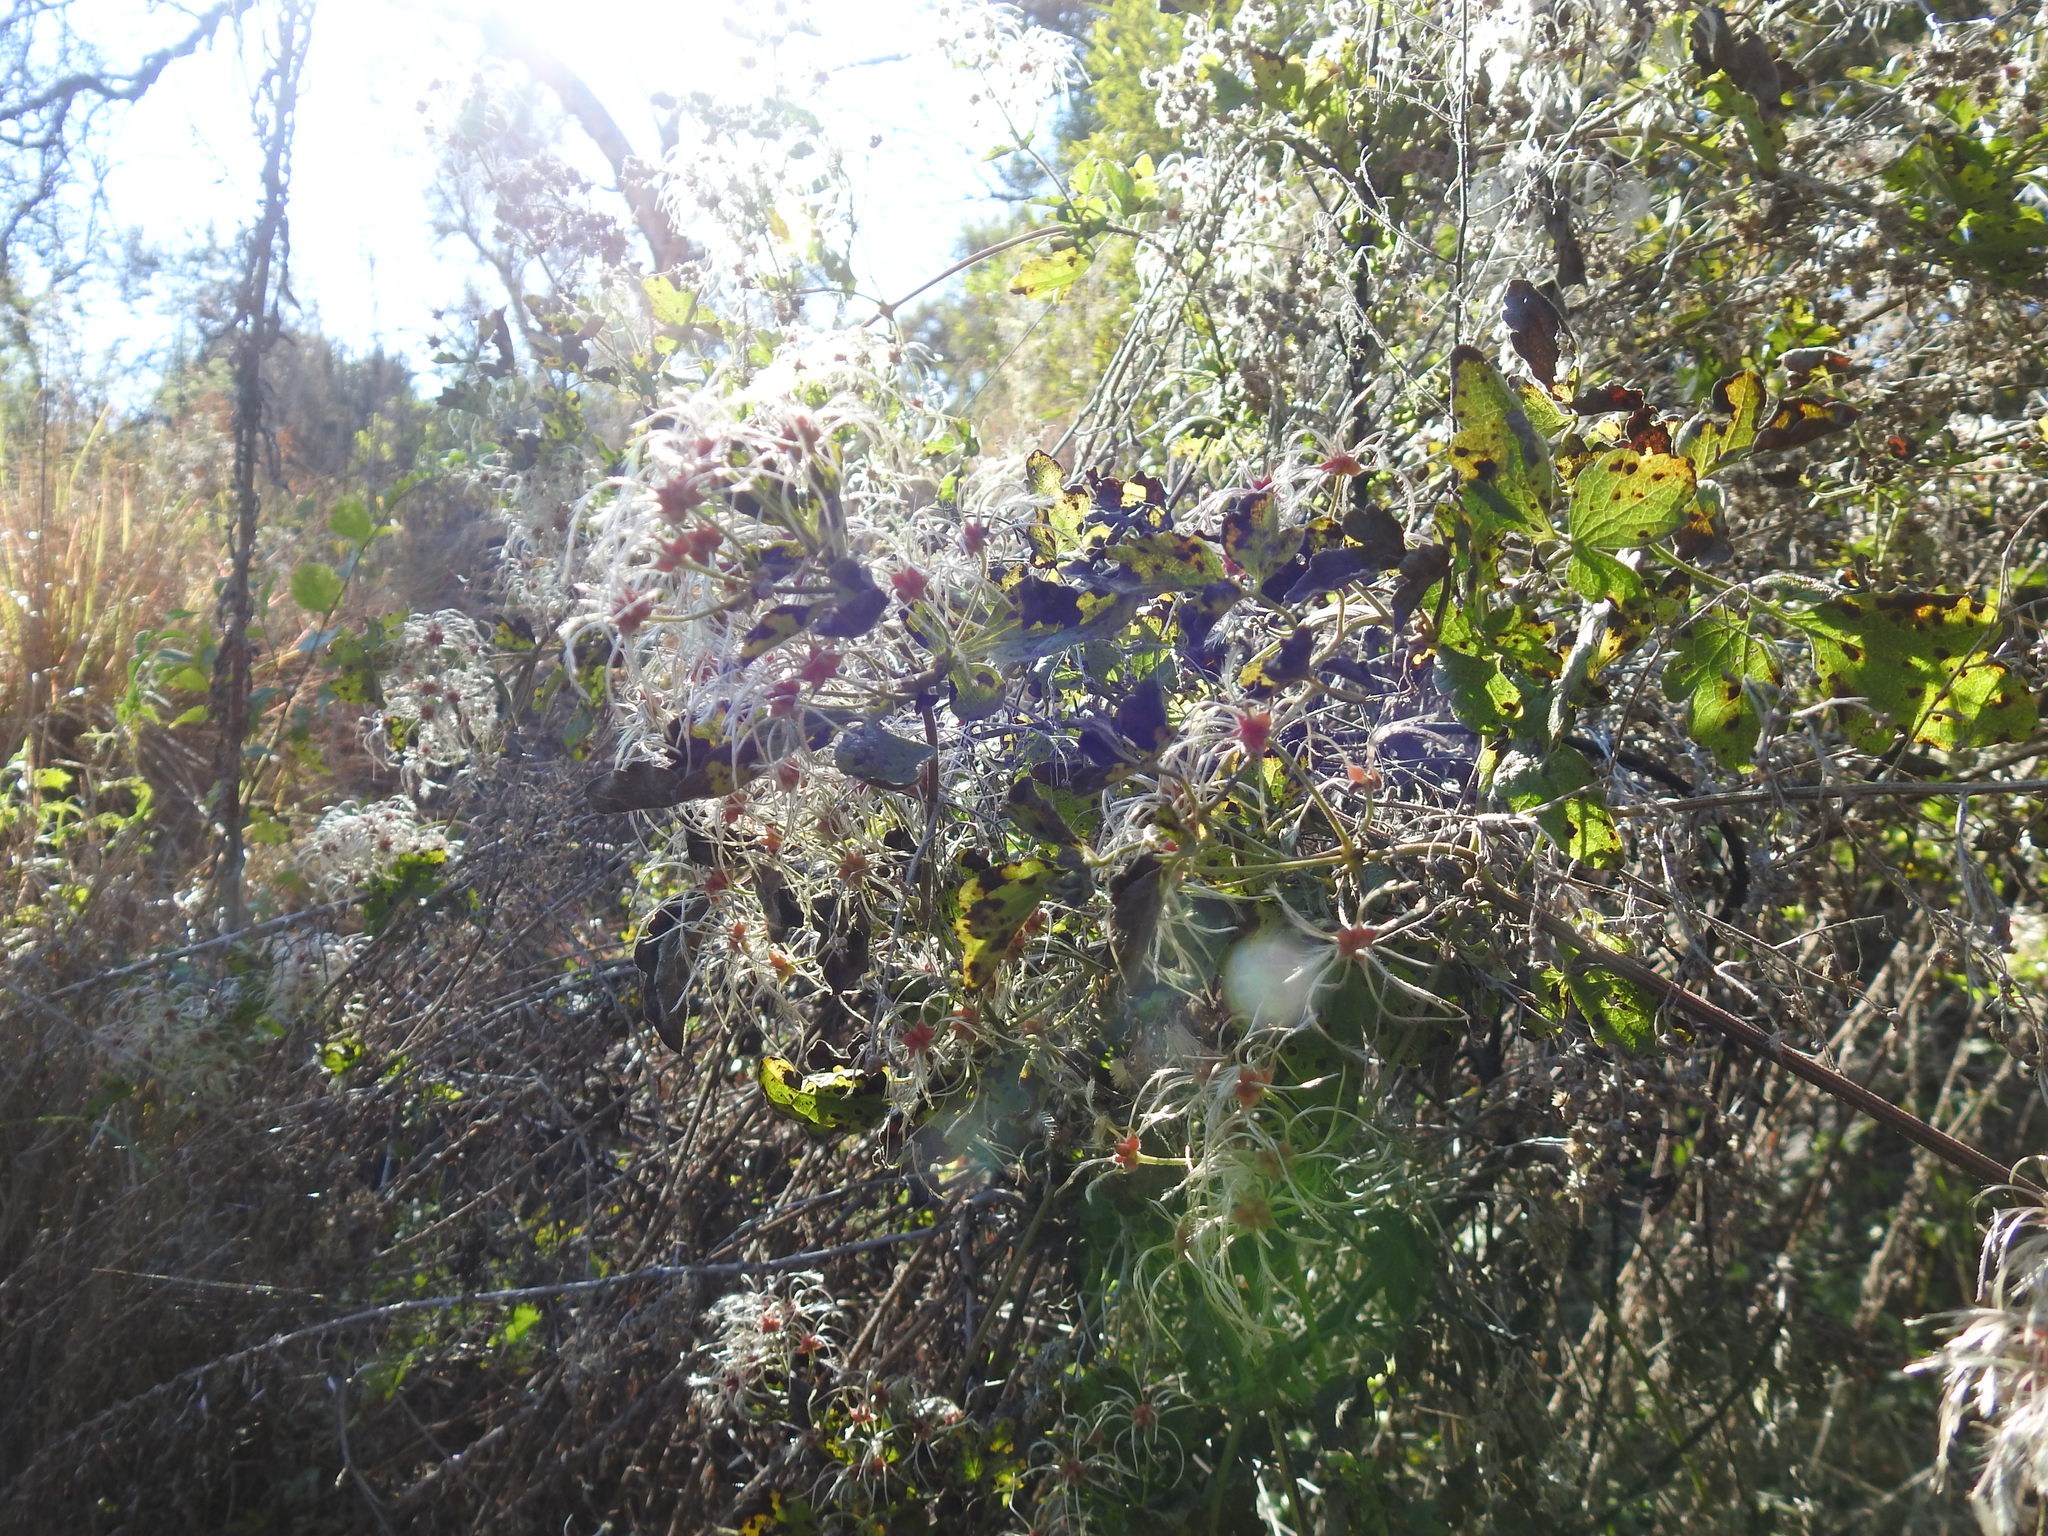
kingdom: Plantae
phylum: Tracheophyta
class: Magnoliopsida
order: Ranunculales
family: Ranunculaceae
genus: Clematis
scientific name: Clematis brachiata
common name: Traveler's-joy
